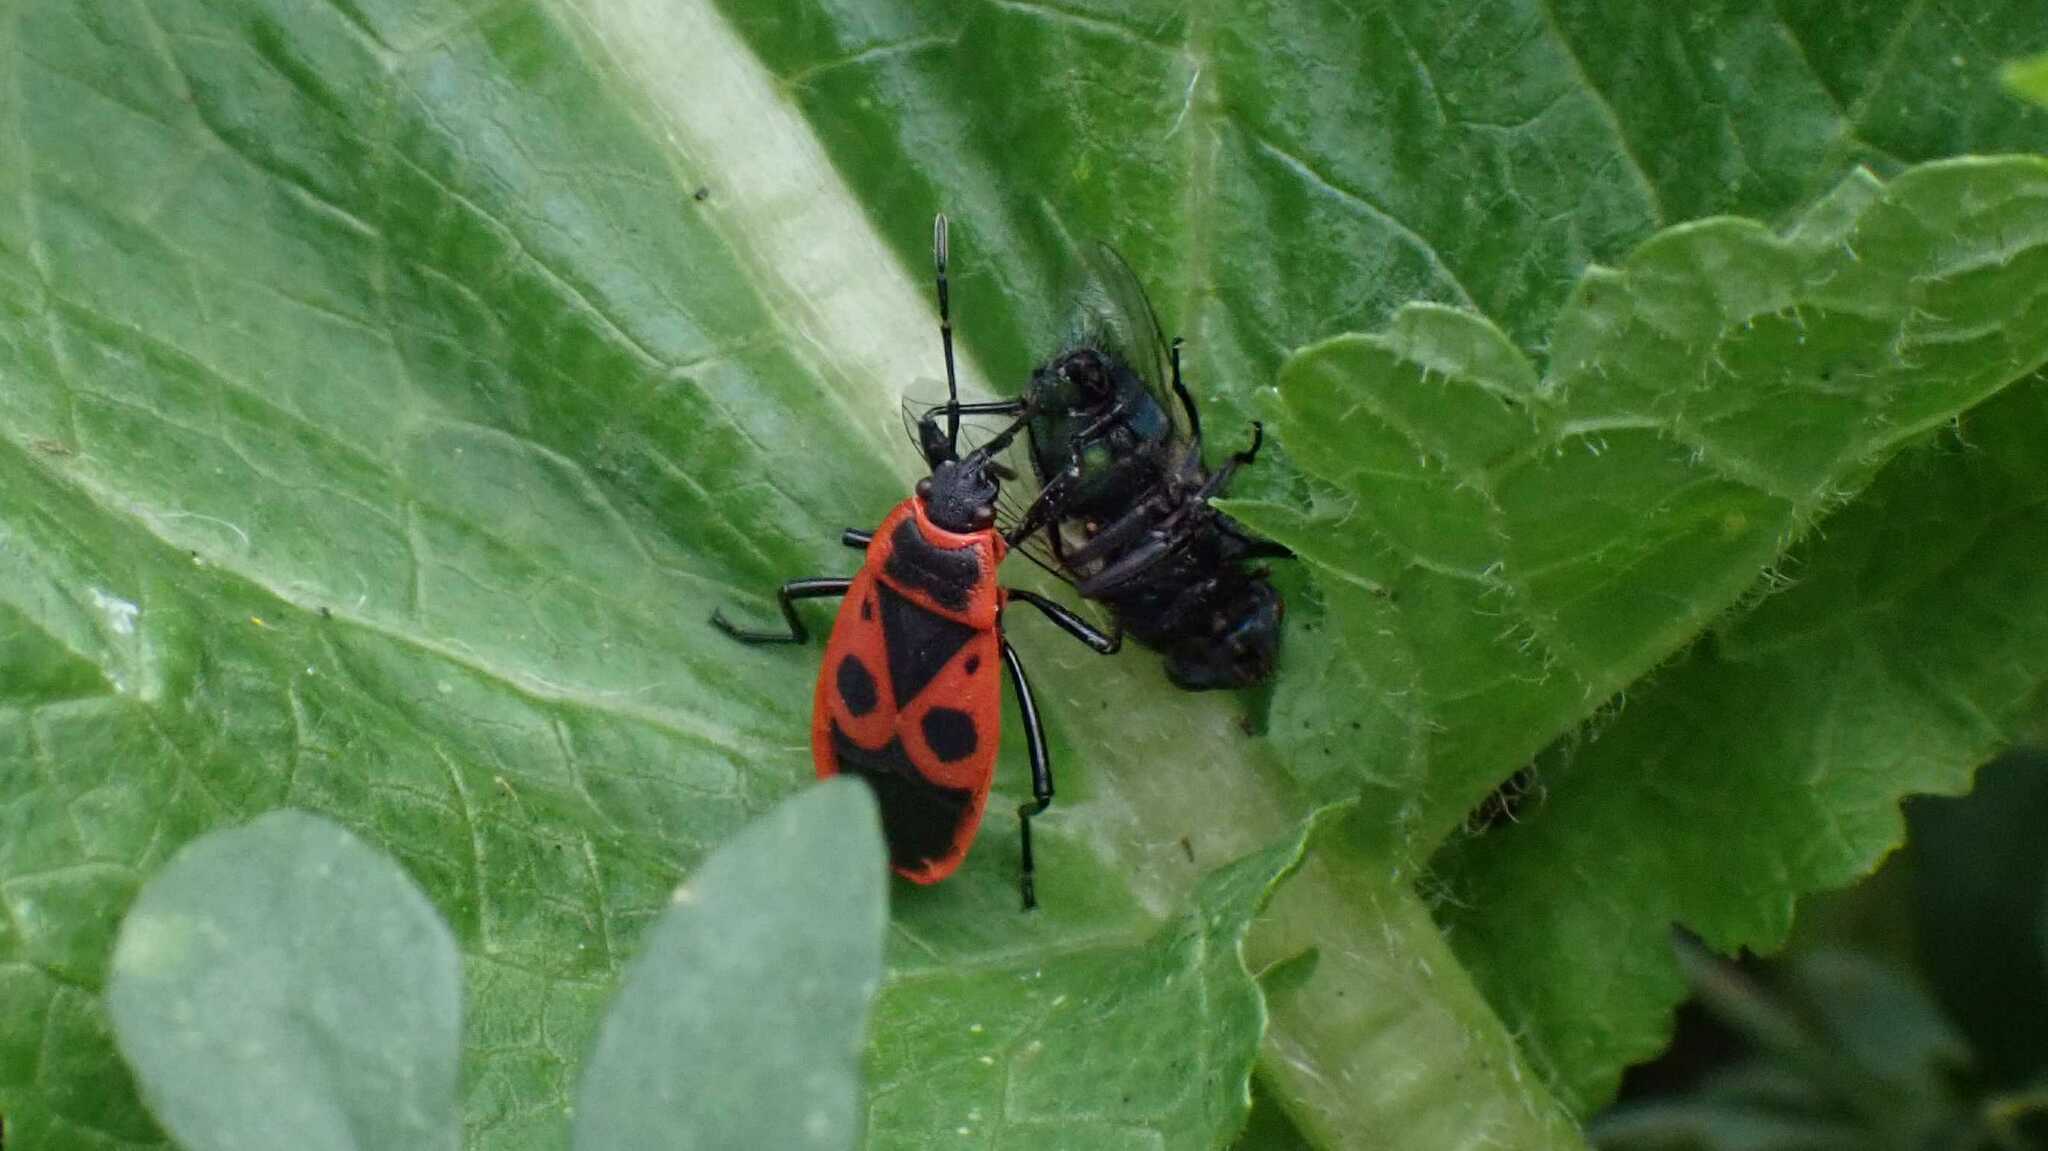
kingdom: Animalia
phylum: Arthropoda
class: Insecta
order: Hemiptera
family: Pyrrhocoridae
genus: Pyrrhocoris
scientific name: Pyrrhocoris apterus
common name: Firebug
